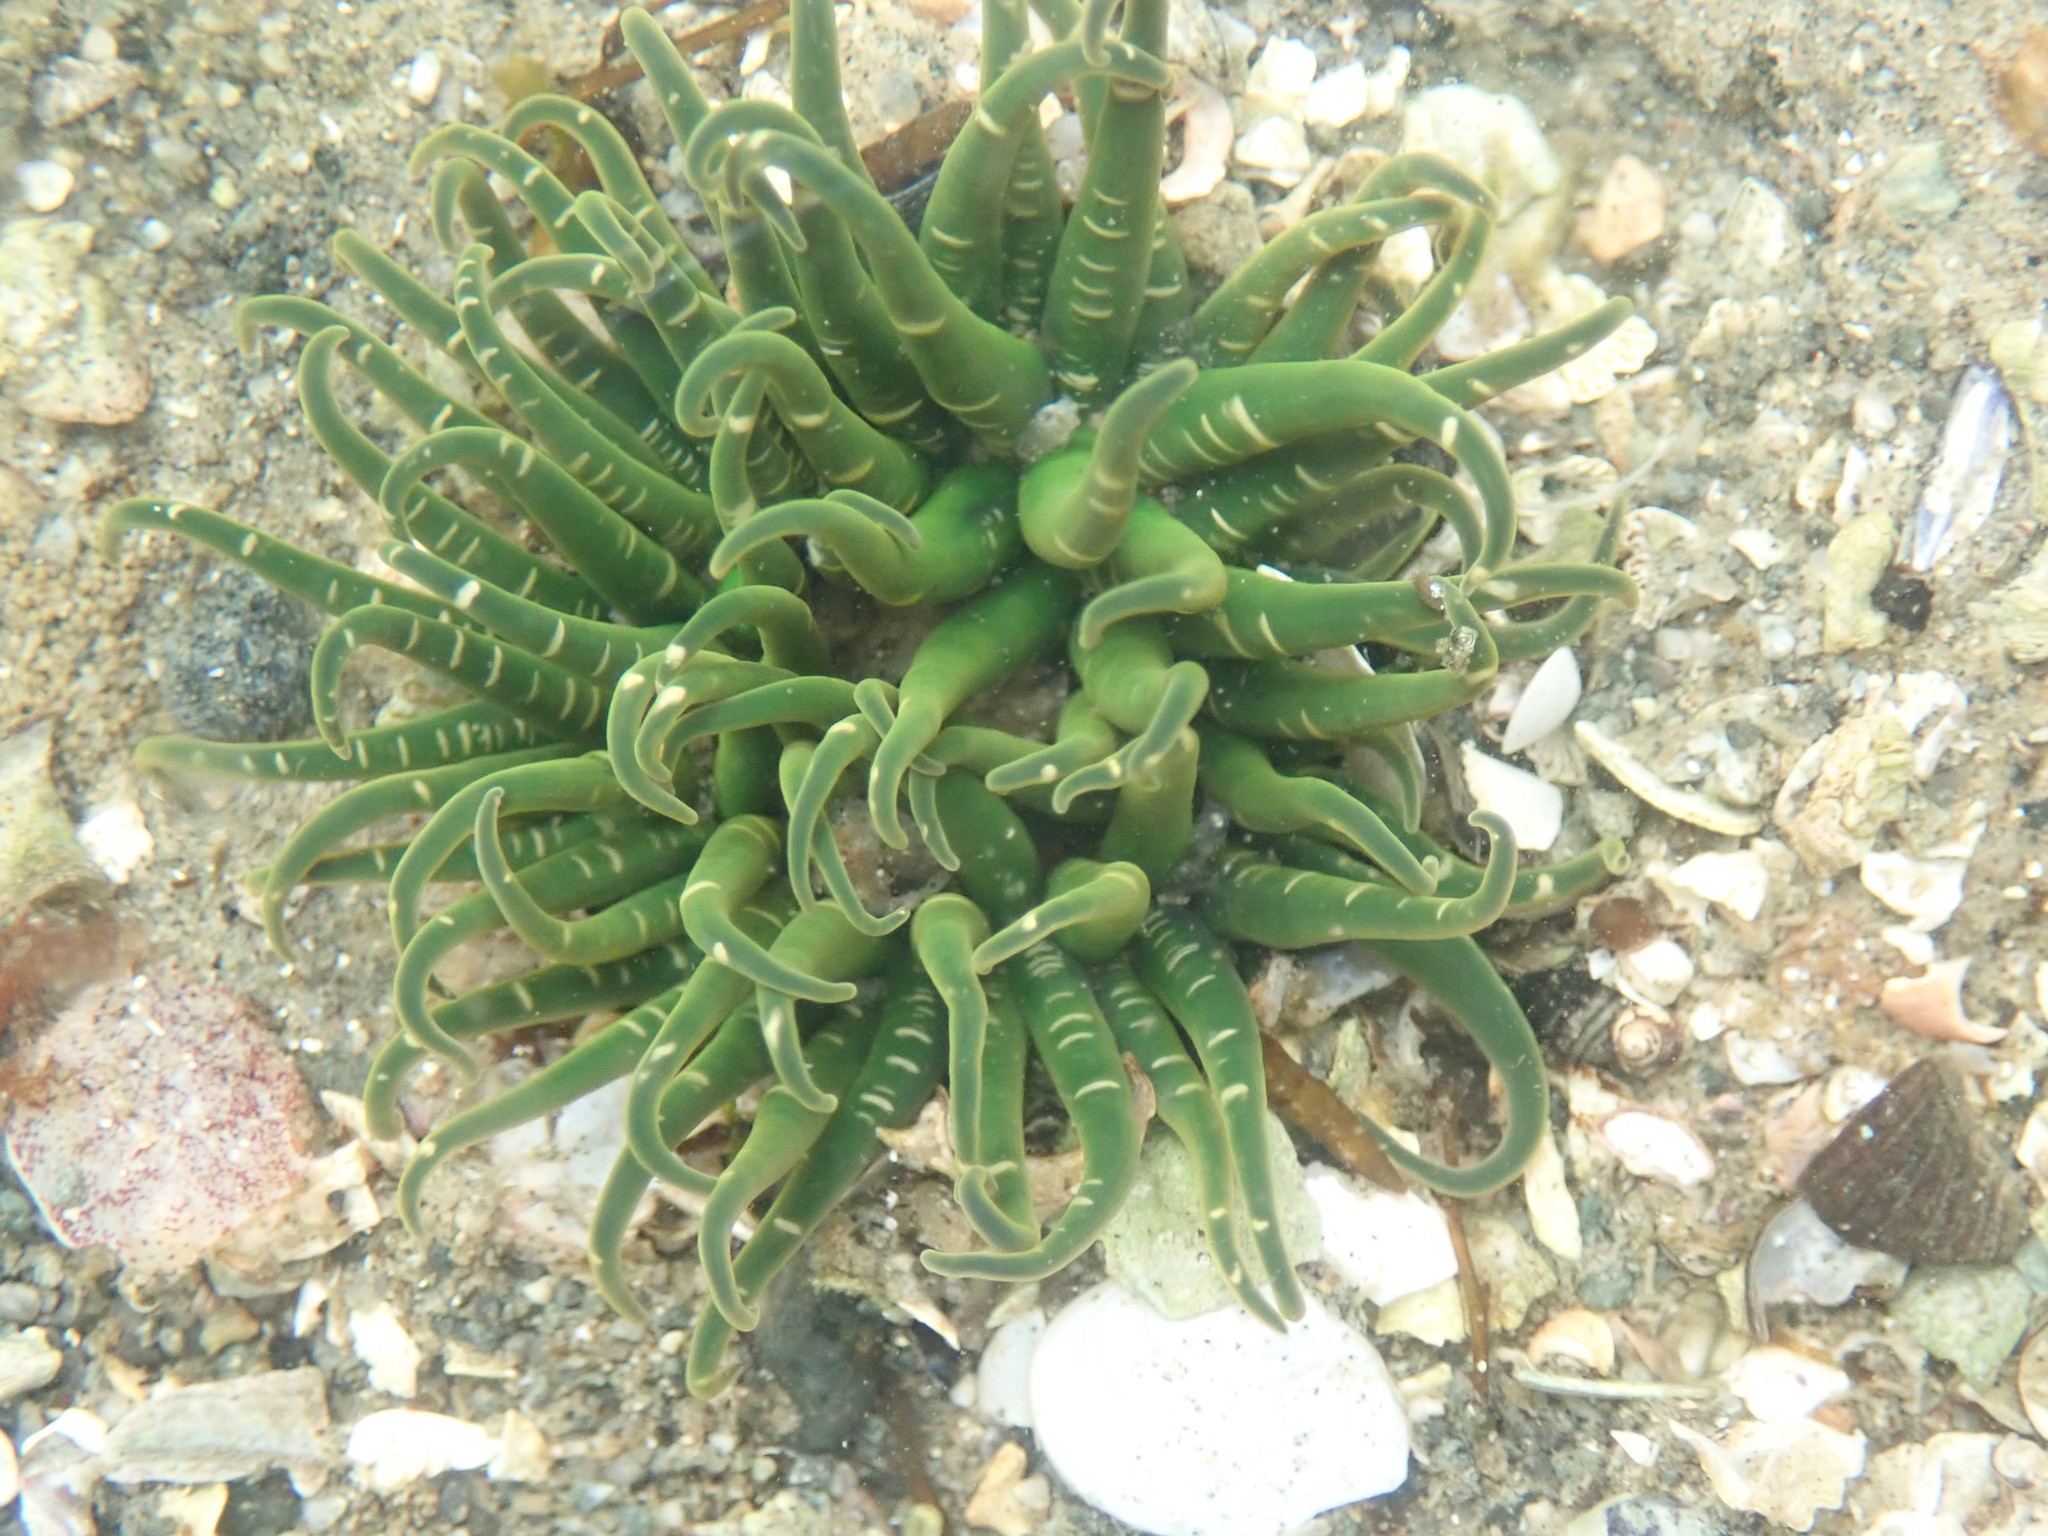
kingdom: Animalia
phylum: Cnidaria
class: Anthozoa
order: Actiniaria
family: Actiniidae
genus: Anthopleura
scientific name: Anthopleura artemisia
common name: Buried sea anemone
